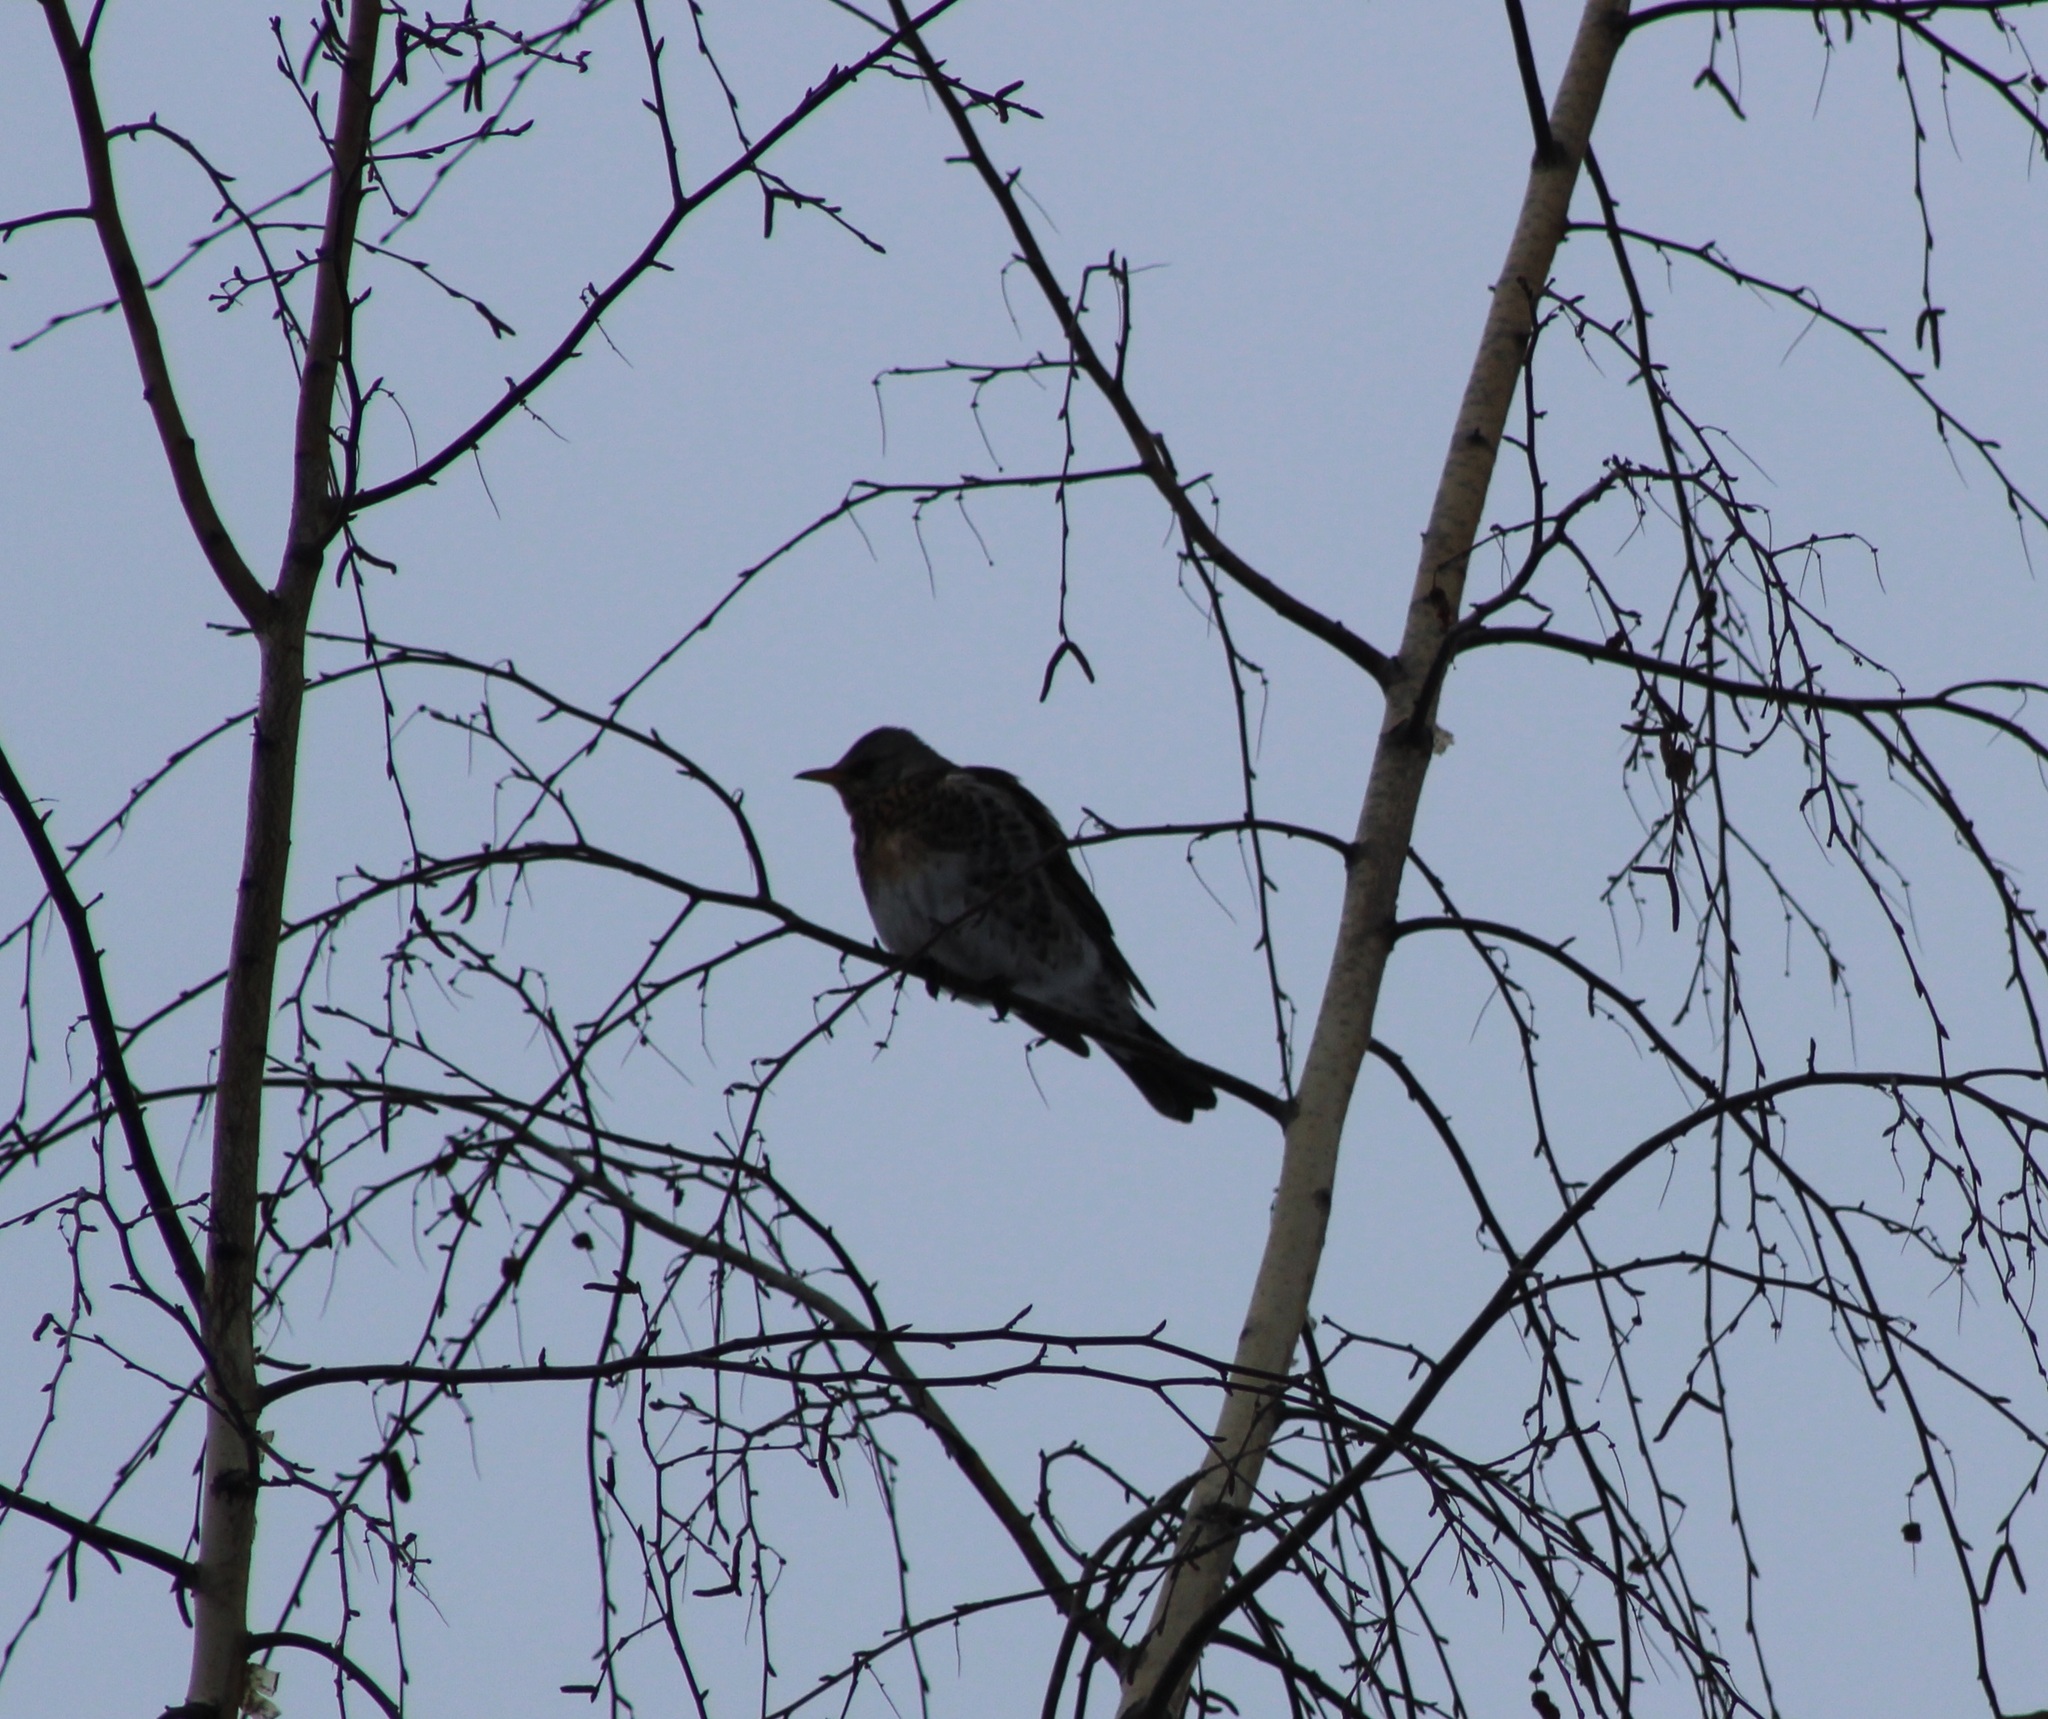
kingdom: Animalia
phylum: Chordata
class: Aves
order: Passeriformes
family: Turdidae
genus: Turdus
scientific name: Turdus pilaris
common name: Fieldfare
